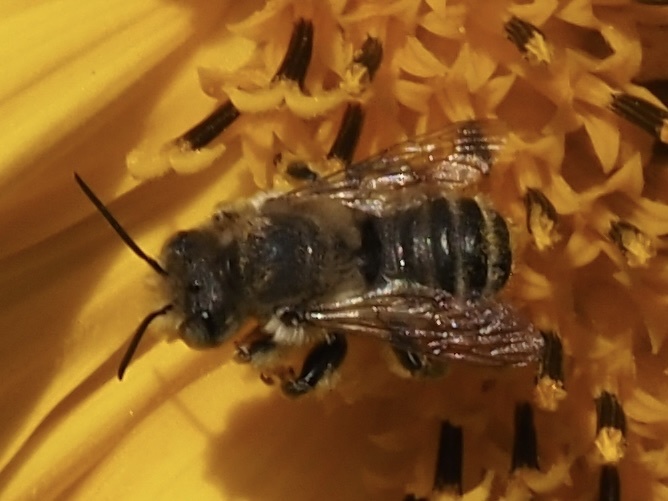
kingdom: Animalia
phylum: Arthropoda
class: Insecta
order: Hymenoptera
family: Megachilidae
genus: Megachile
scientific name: Megachile frigida
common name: Frigid leafcutter
